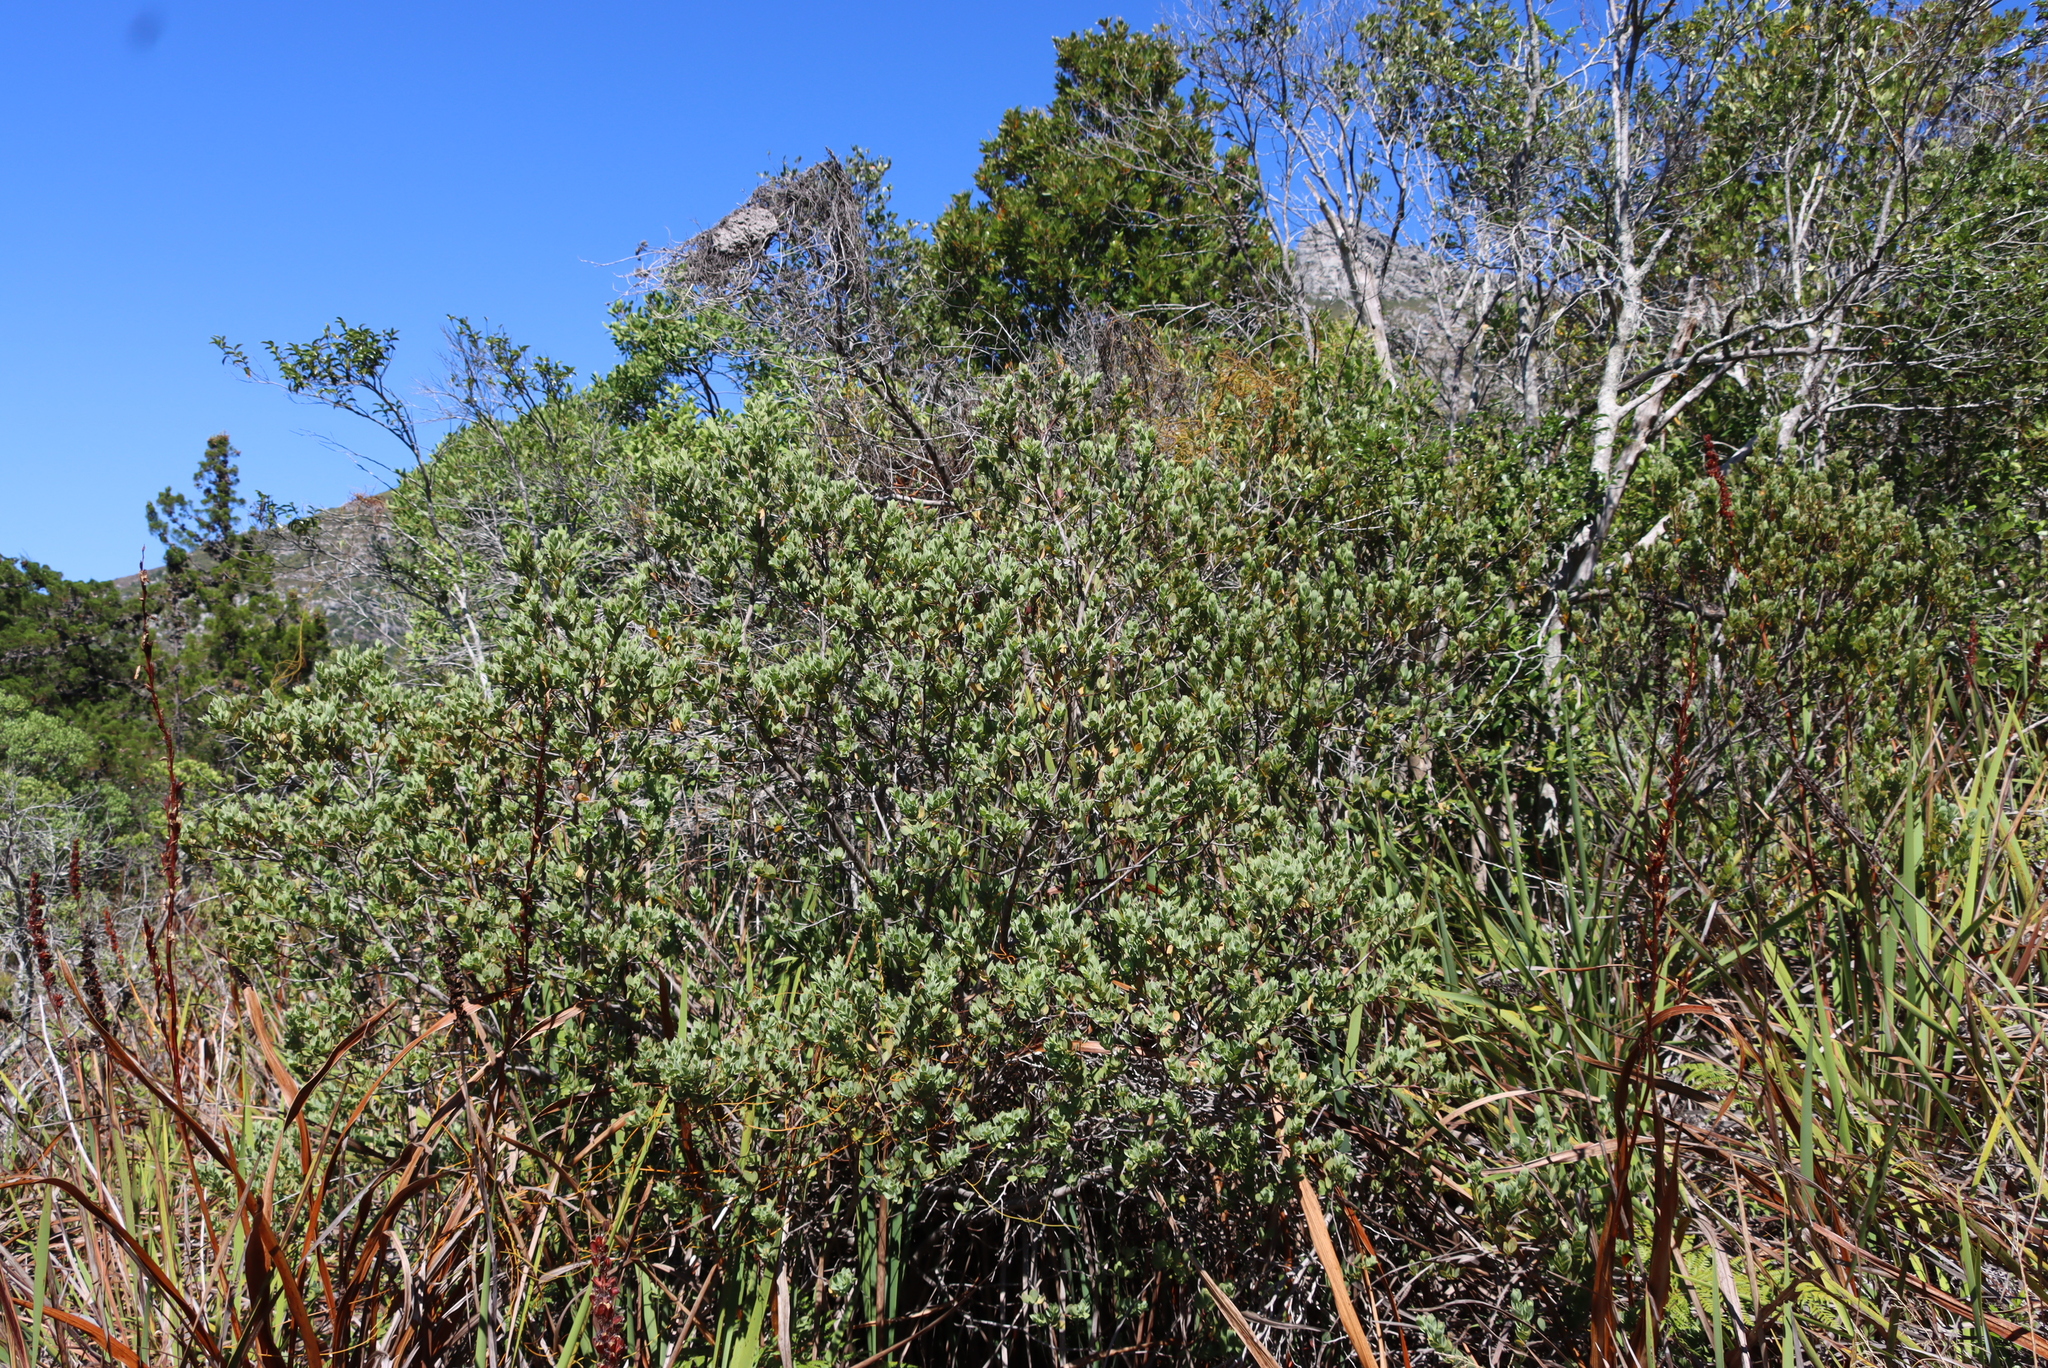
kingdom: Plantae
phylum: Tracheophyta
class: Magnoliopsida
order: Santalales
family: Santalaceae
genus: Osyris
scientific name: Osyris compressa
